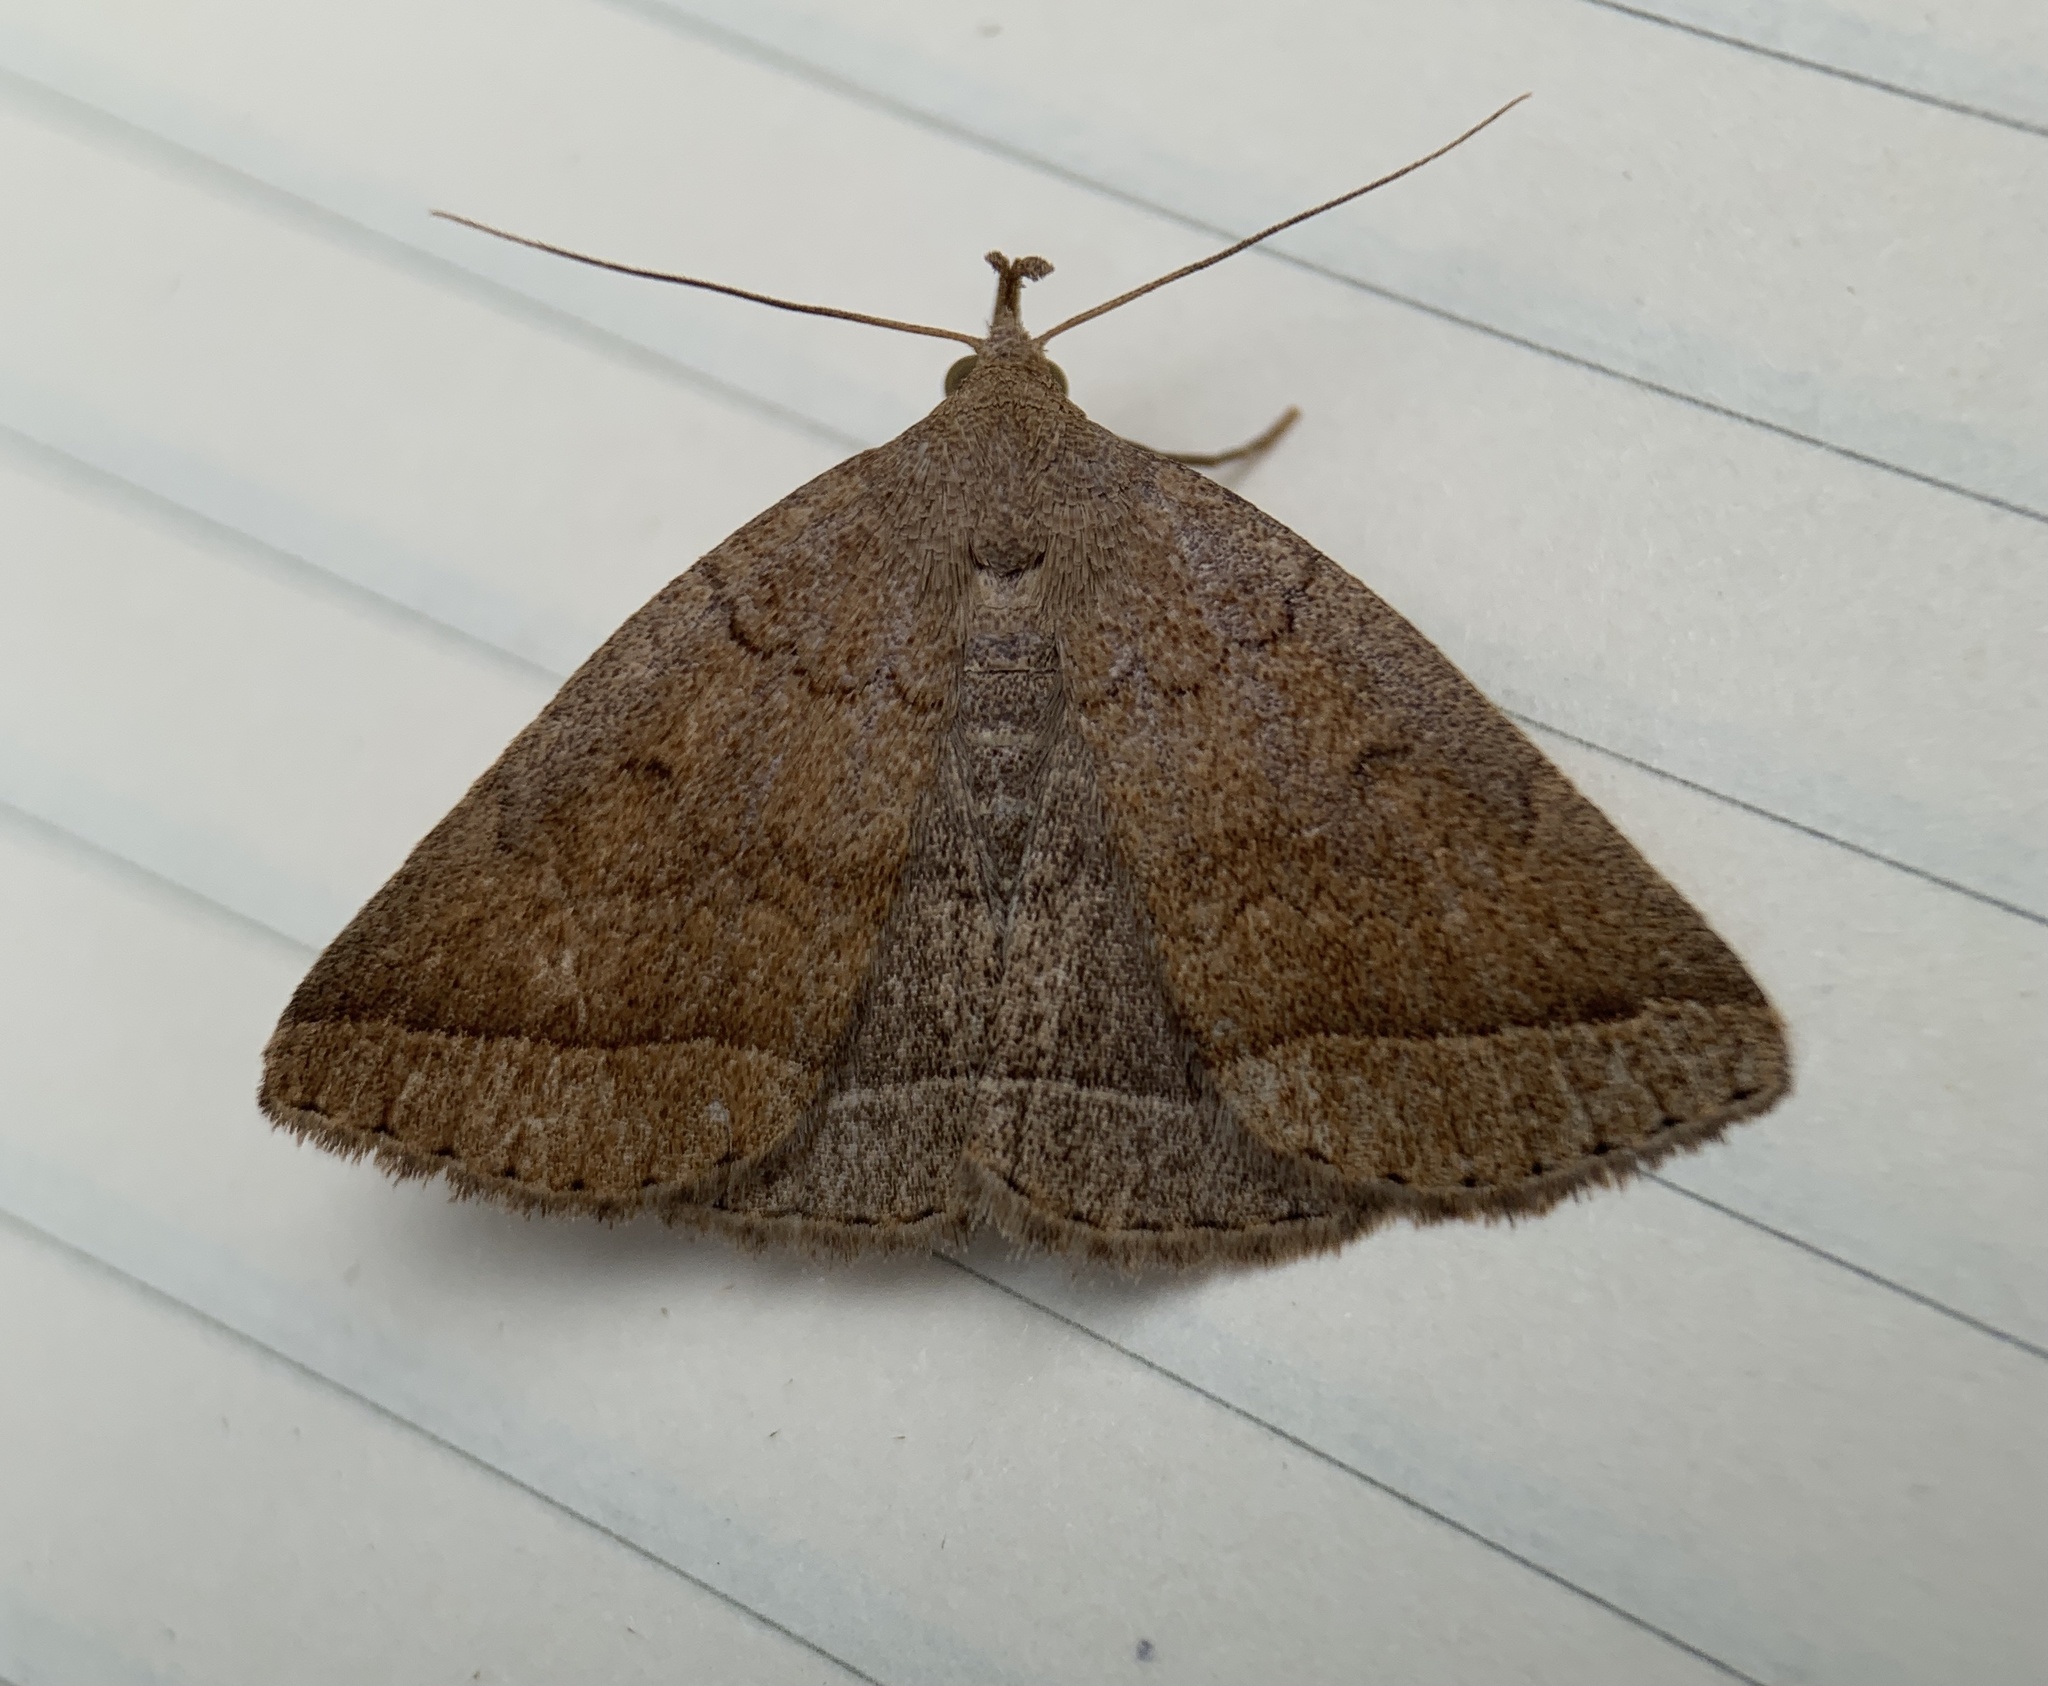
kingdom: Animalia
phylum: Arthropoda
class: Insecta
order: Lepidoptera
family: Erebidae
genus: Zanclognatha
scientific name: Zanclognatha jacchusalis
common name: Yellowish zanclognatha
